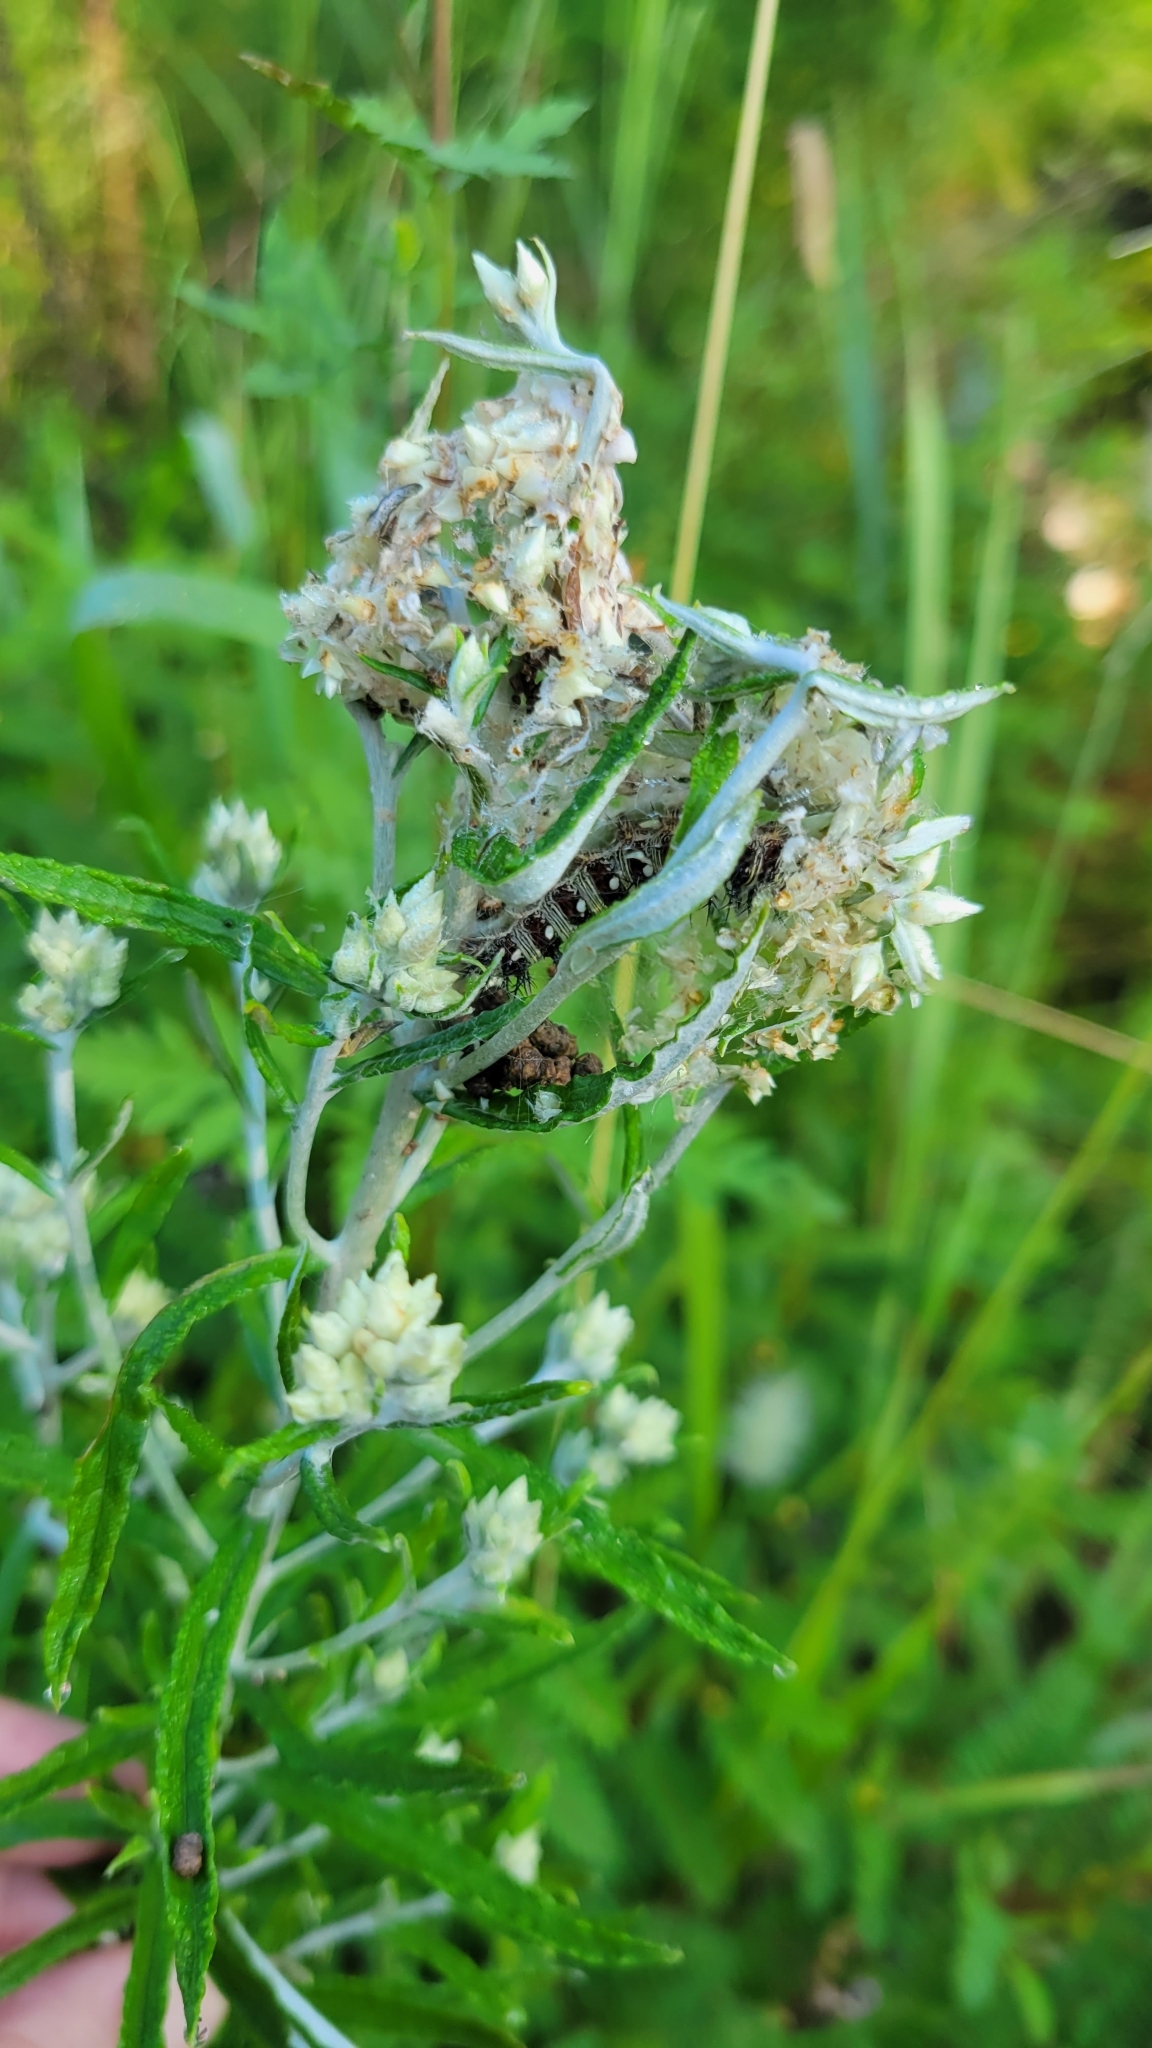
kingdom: Animalia
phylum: Arthropoda
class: Insecta
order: Lepidoptera
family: Nymphalidae
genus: Vanessa
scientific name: Vanessa virginiensis
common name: American lady
